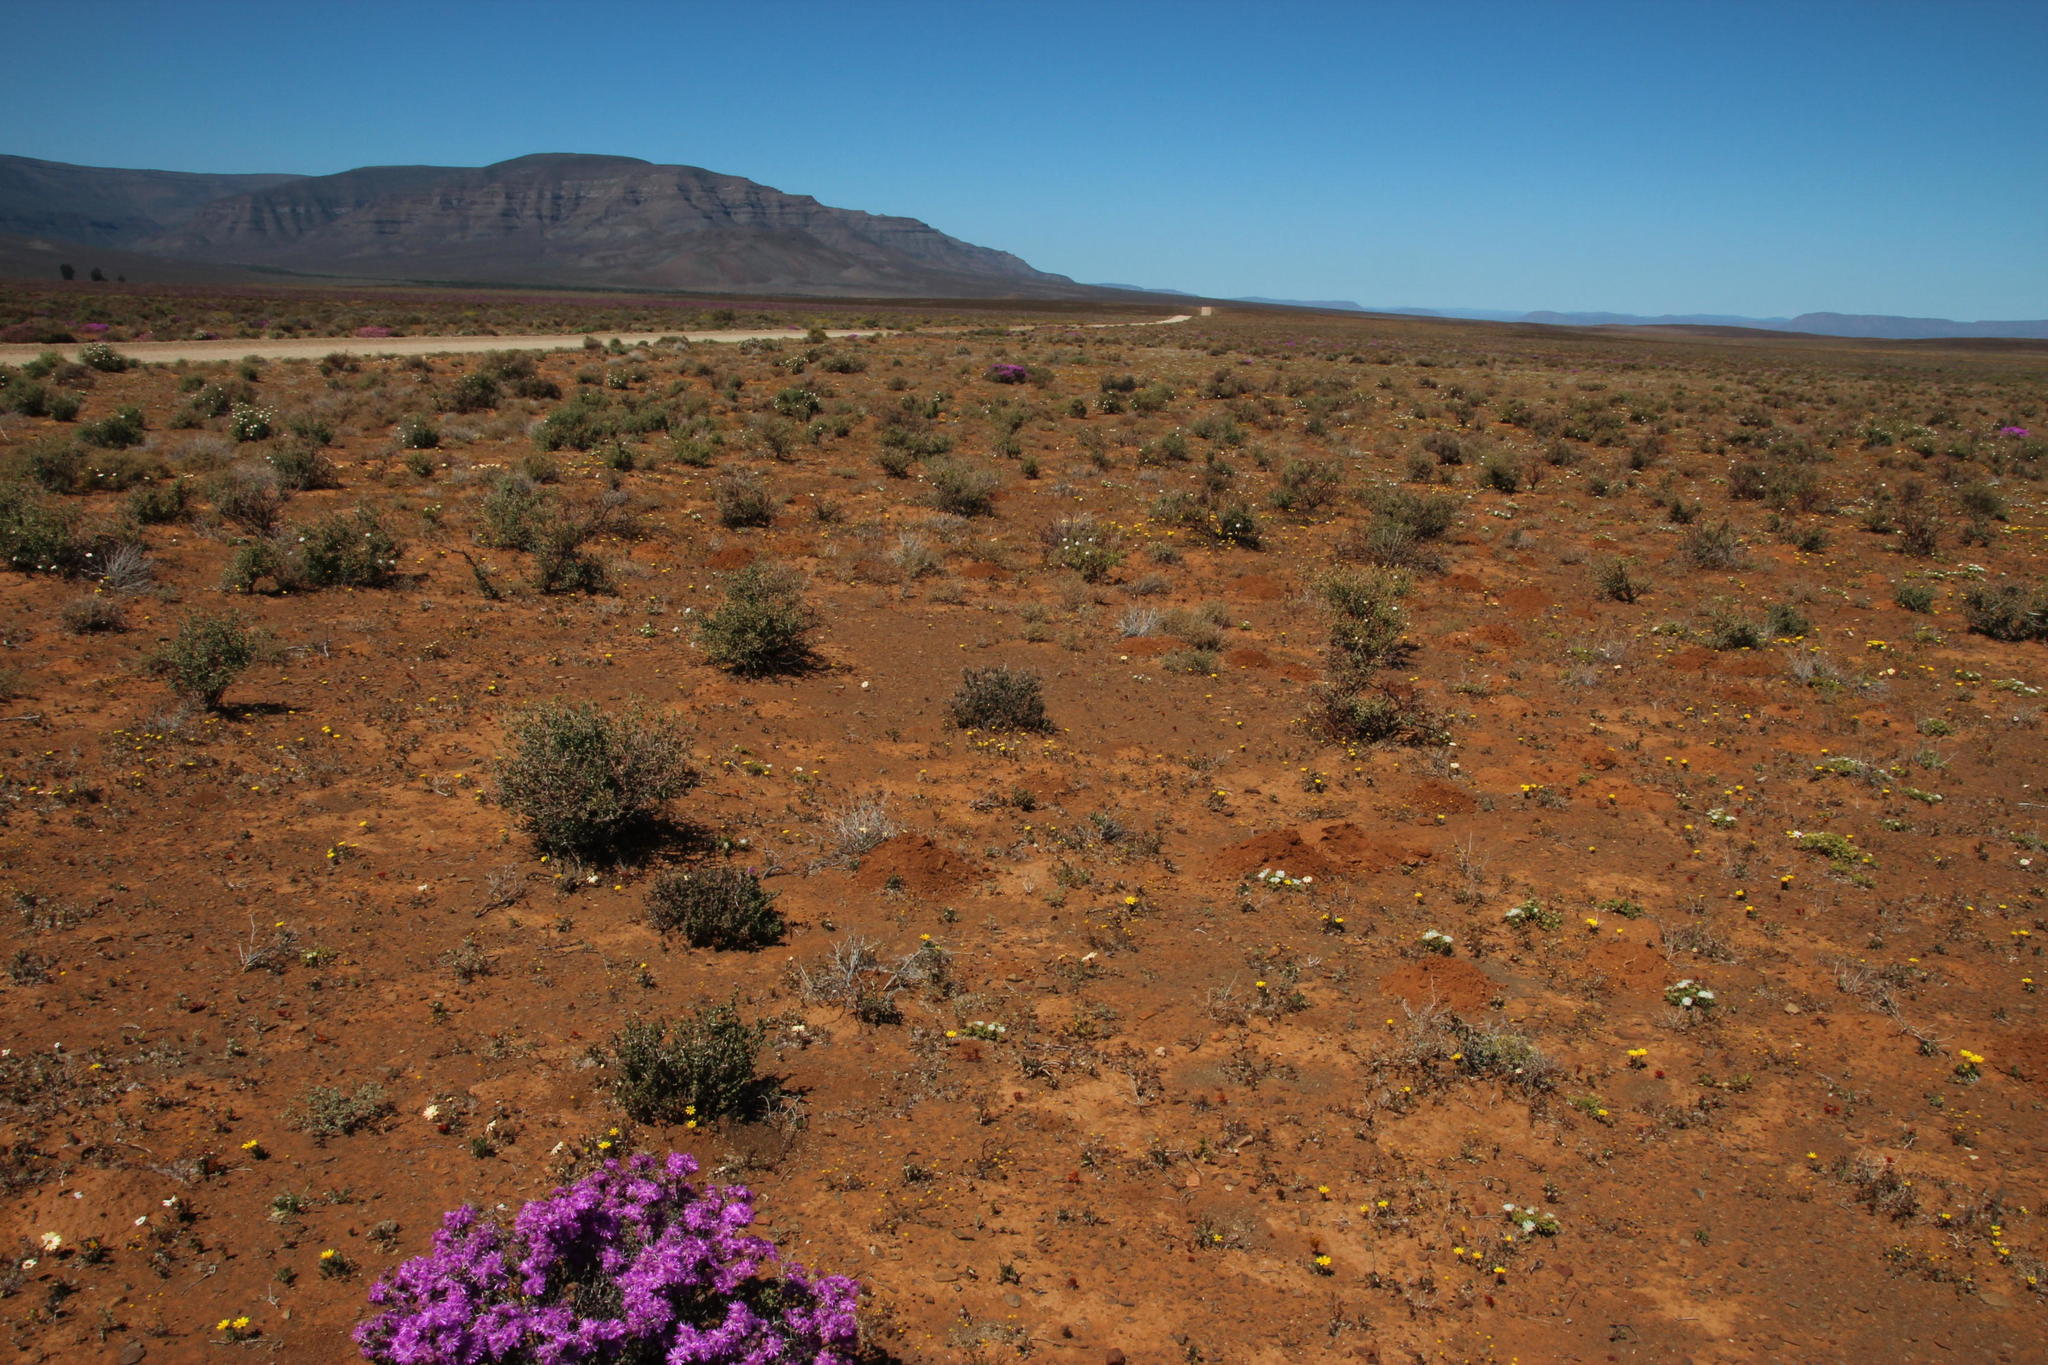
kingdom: Animalia
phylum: Chordata
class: Mammalia
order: Rodentia
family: Bathyergidae
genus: Cryptomys
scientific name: Cryptomys hottentotus
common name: Southern african mole-rat
